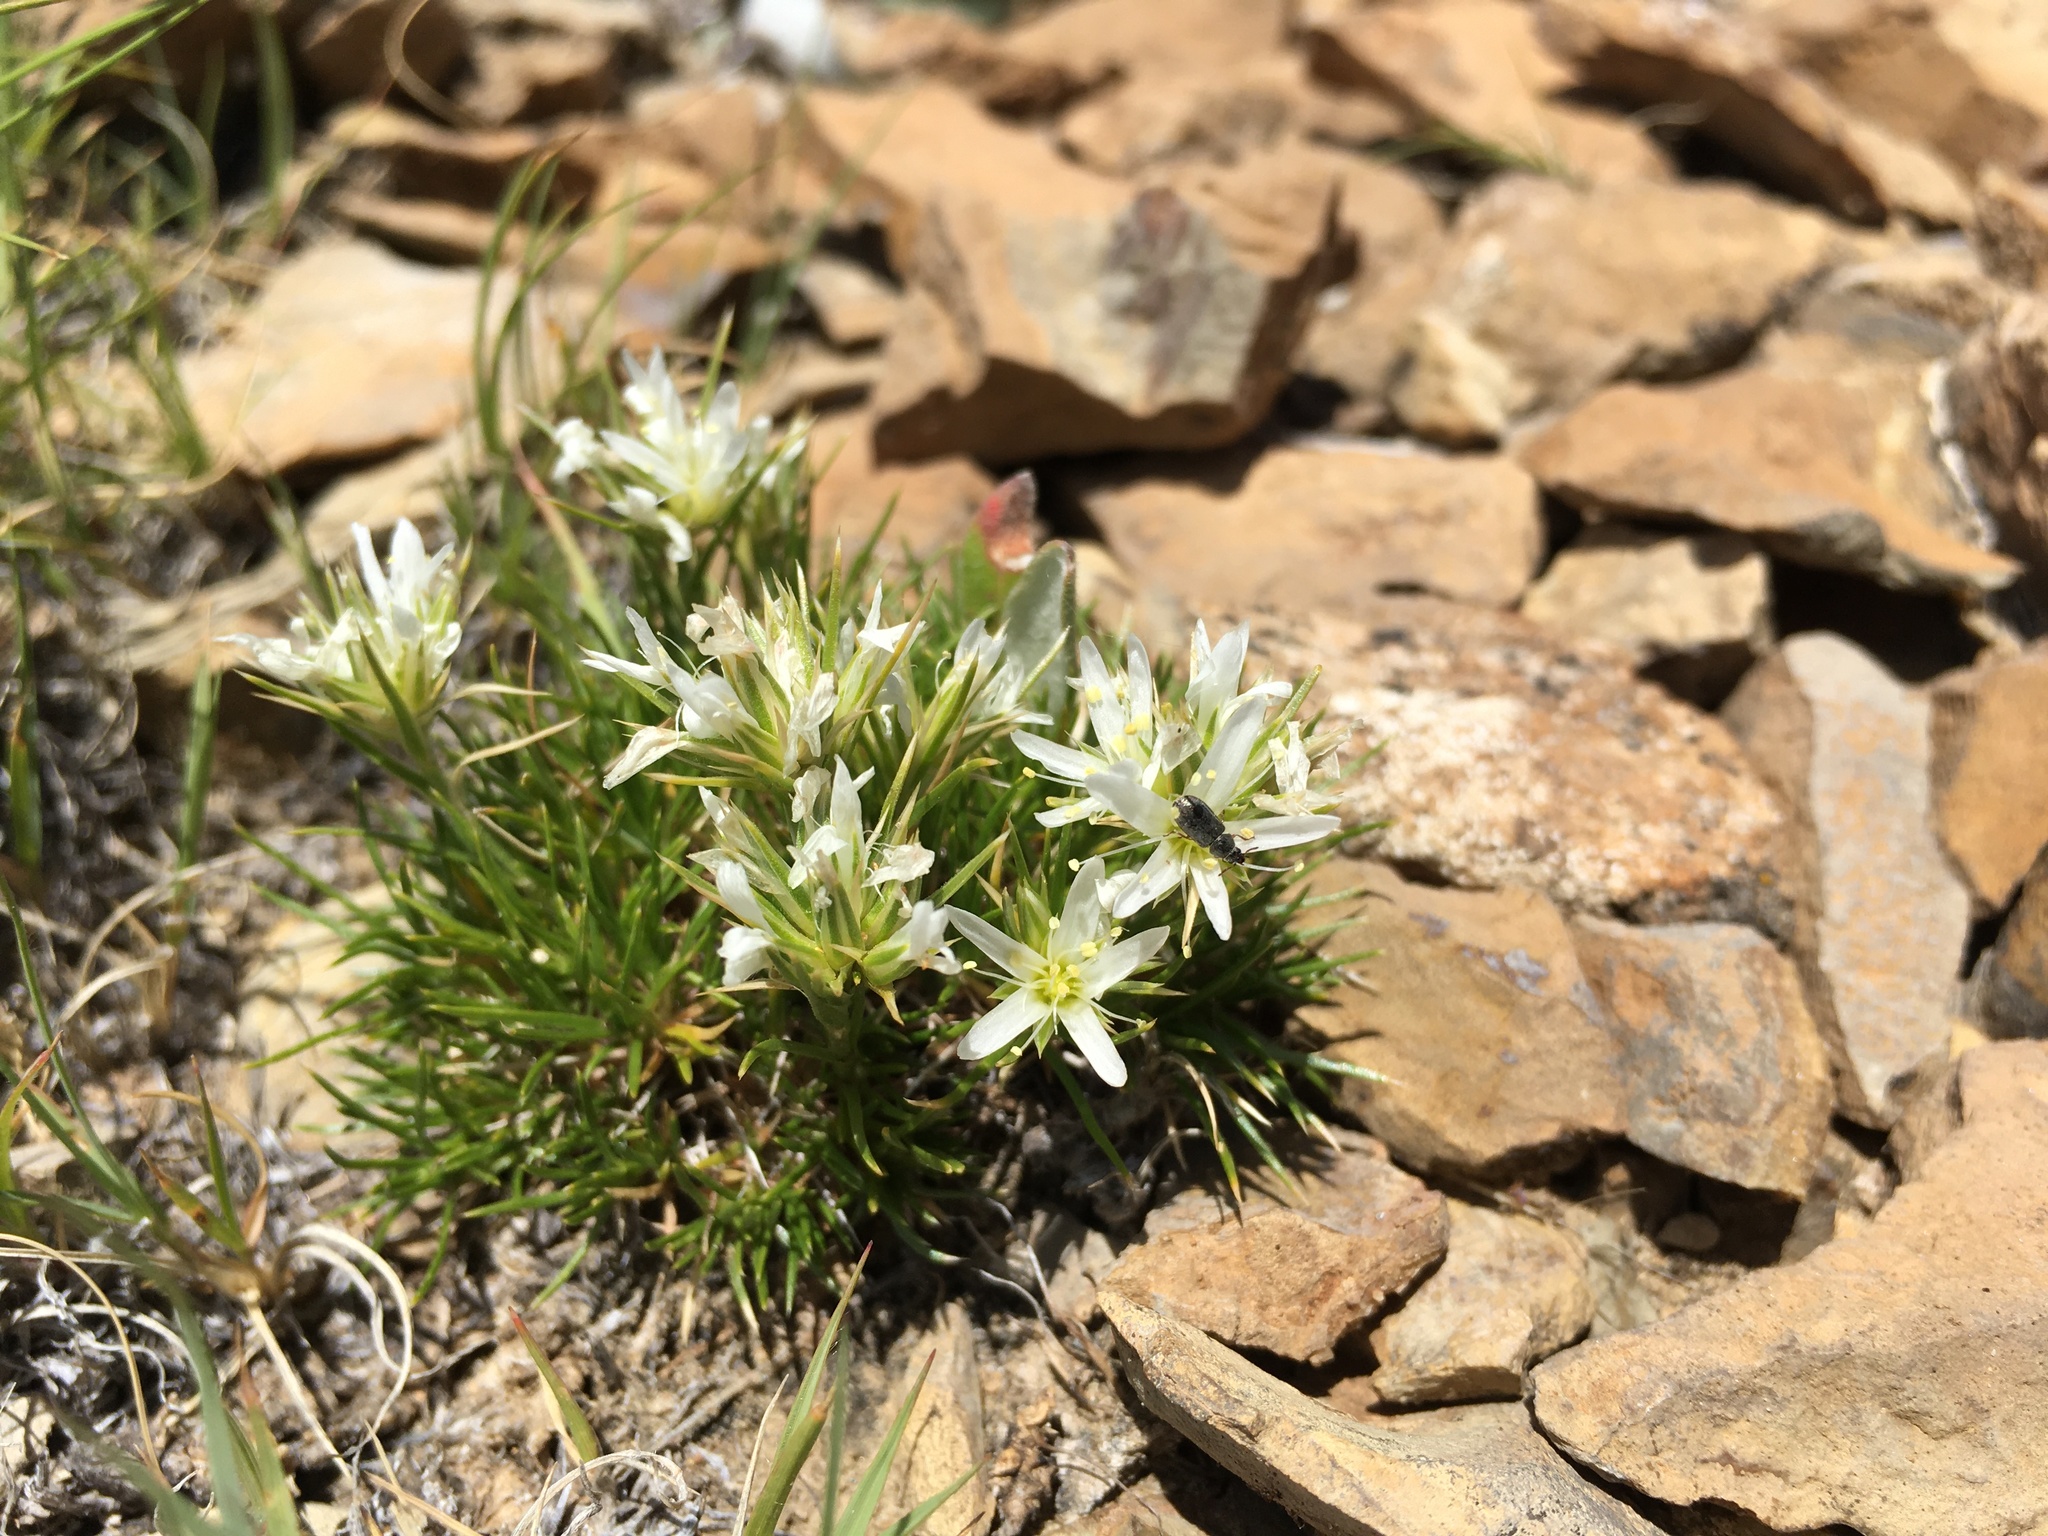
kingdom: Plantae
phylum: Tracheophyta
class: Magnoliopsida
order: Caryophyllales
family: Caryophyllaceae
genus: Eremogone
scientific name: Eremogone hookeri
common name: Hooker's sandwort
